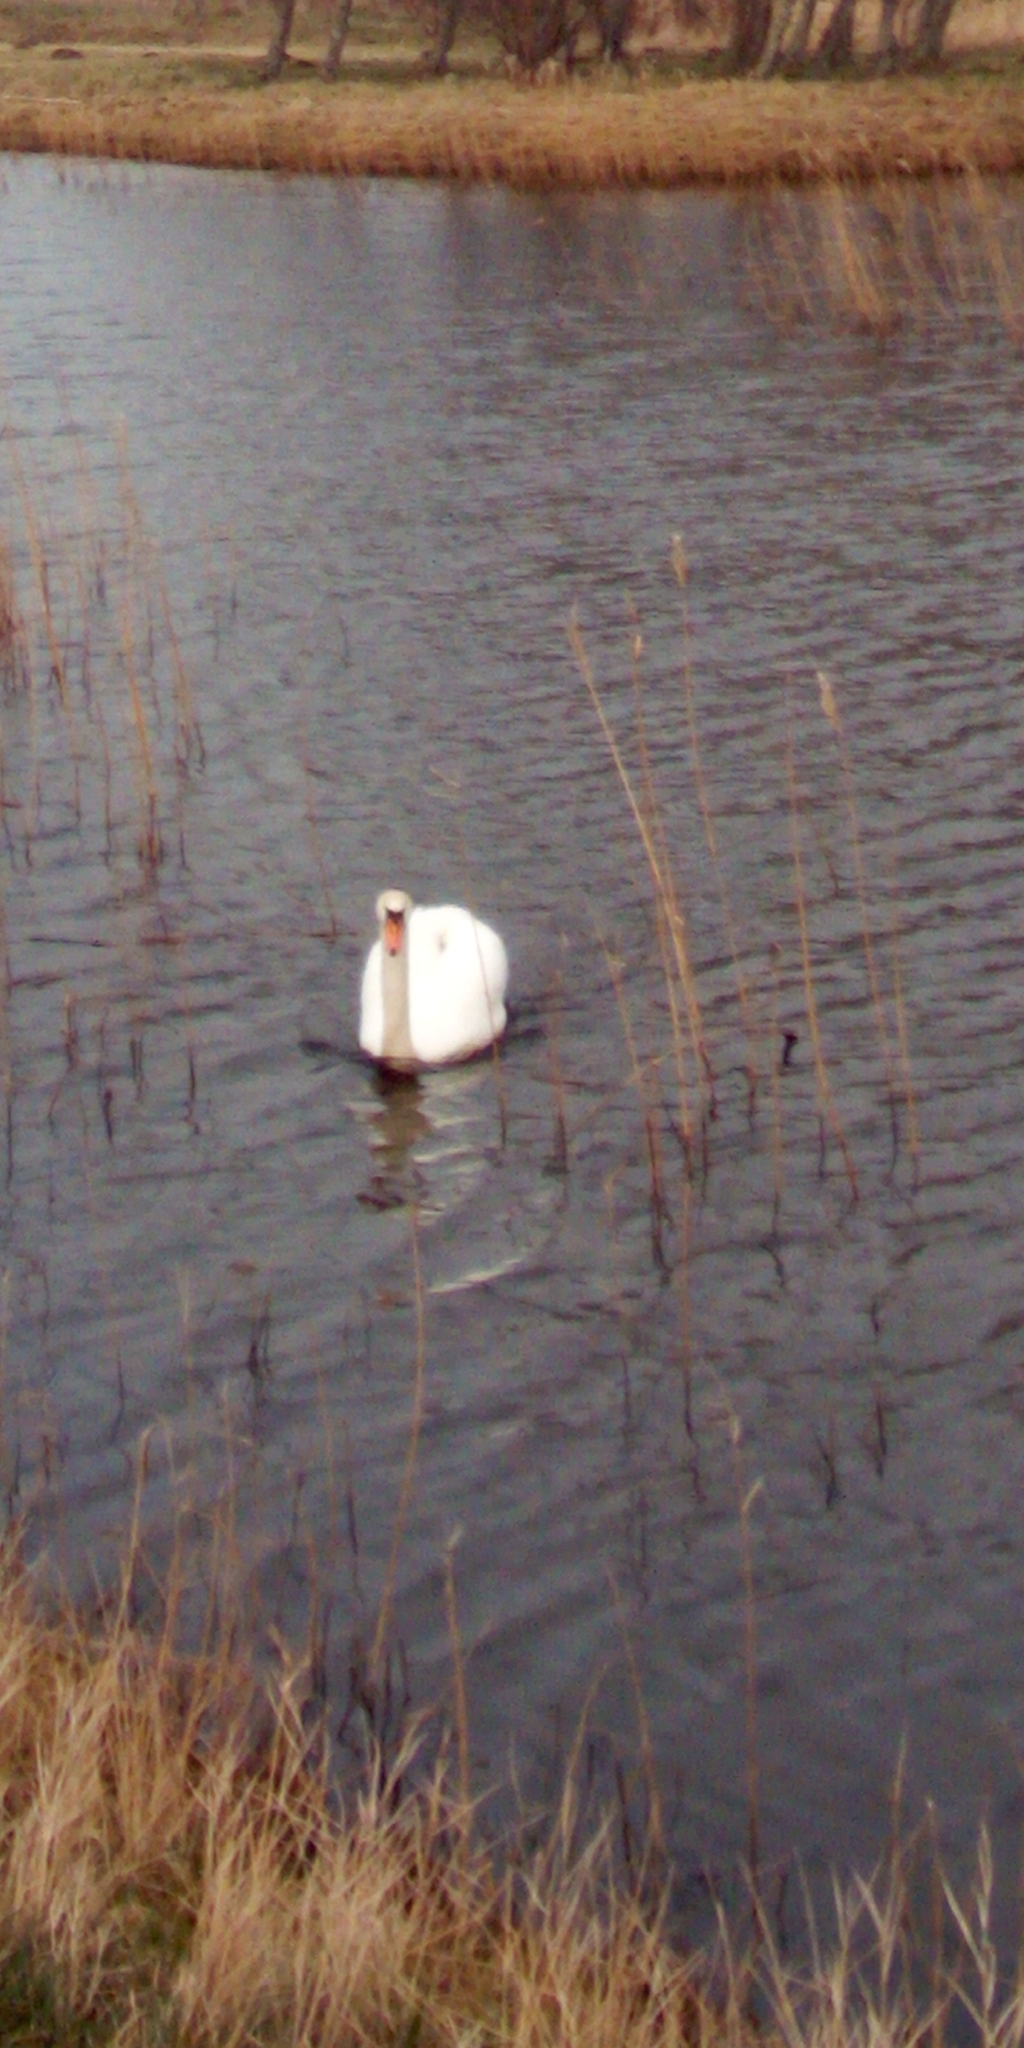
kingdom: Animalia
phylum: Chordata
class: Aves
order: Anseriformes
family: Anatidae
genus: Cygnus
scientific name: Cygnus olor
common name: Mute swan
